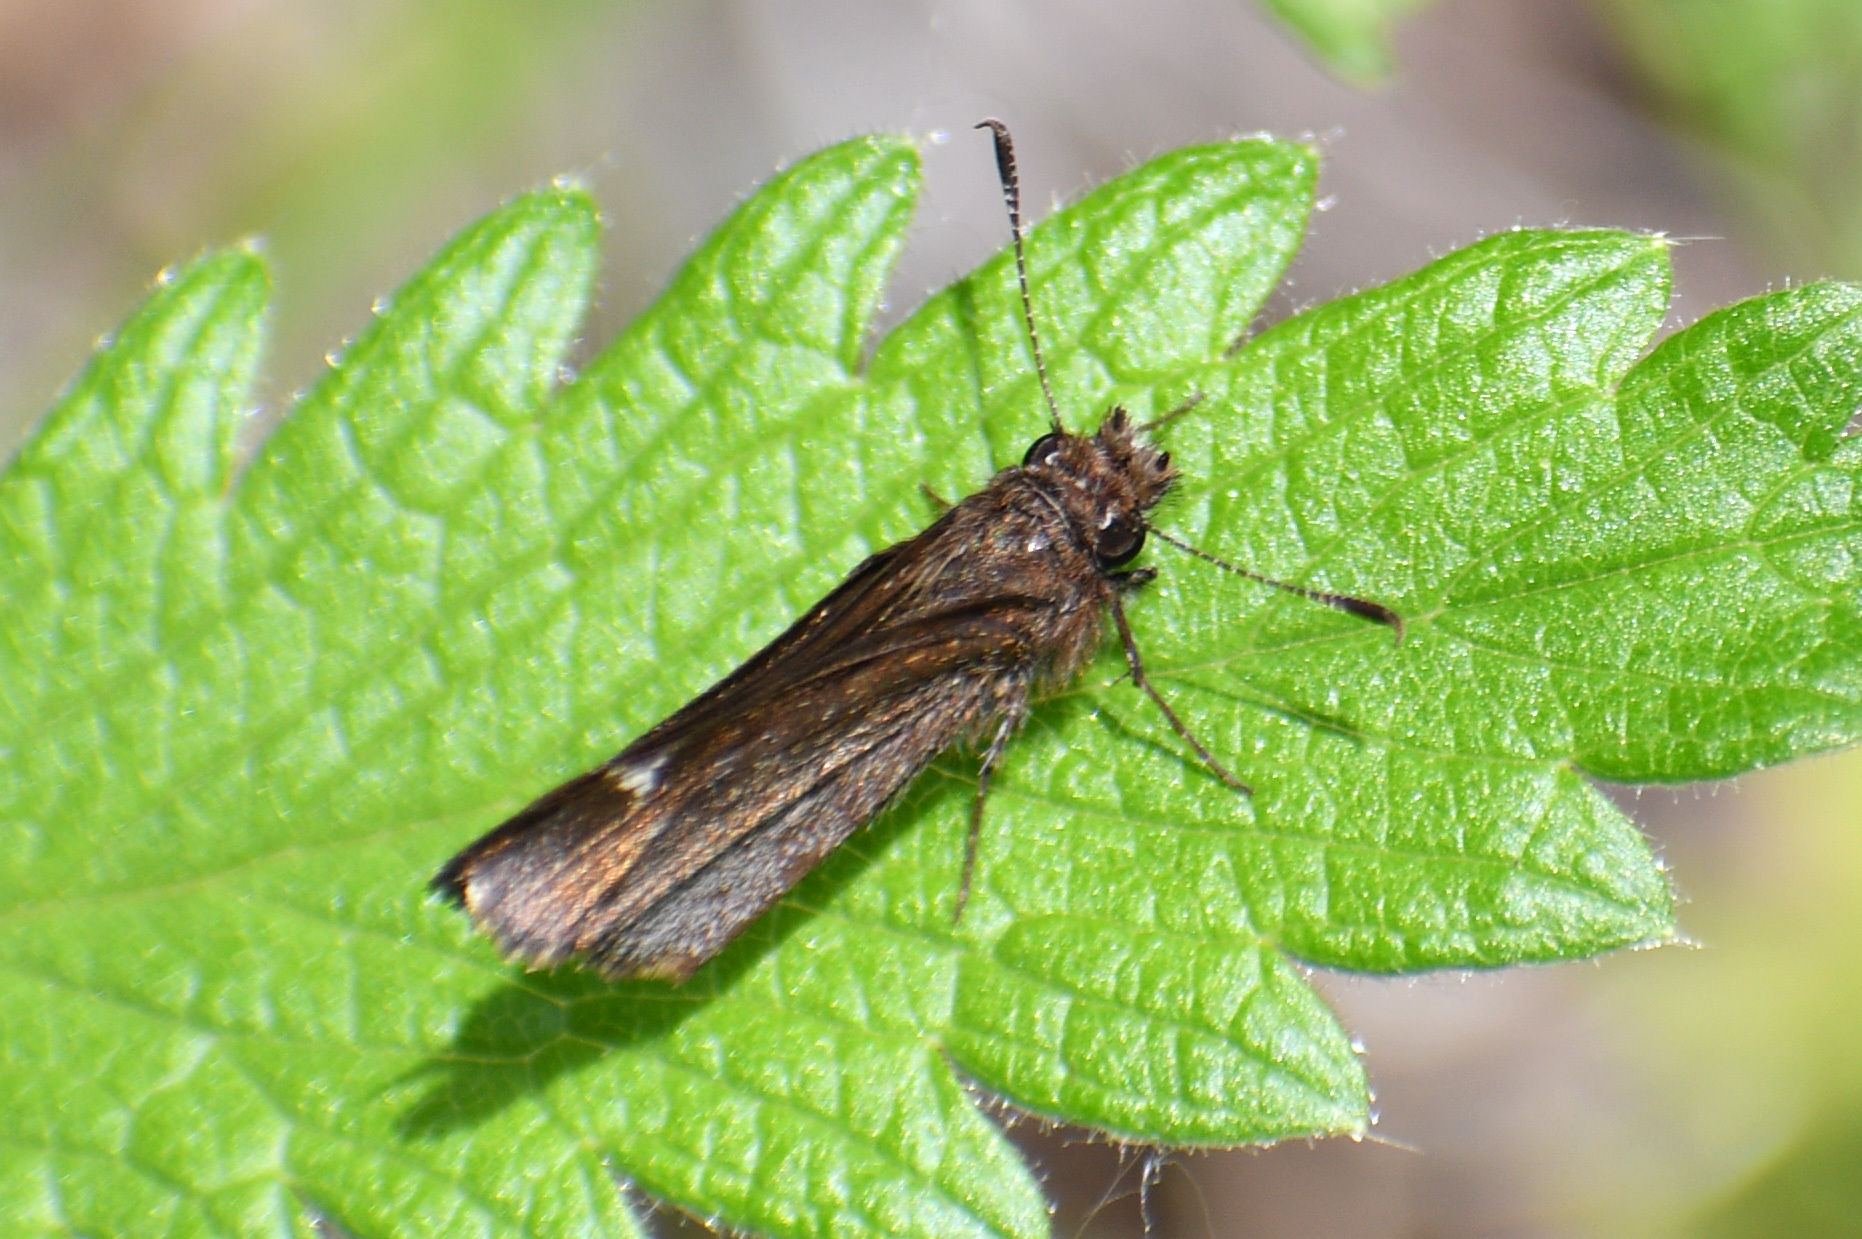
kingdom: Animalia
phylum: Arthropoda
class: Insecta
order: Lepidoptera
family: Hesperiidae
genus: Mastor
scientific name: Mastor vialis
